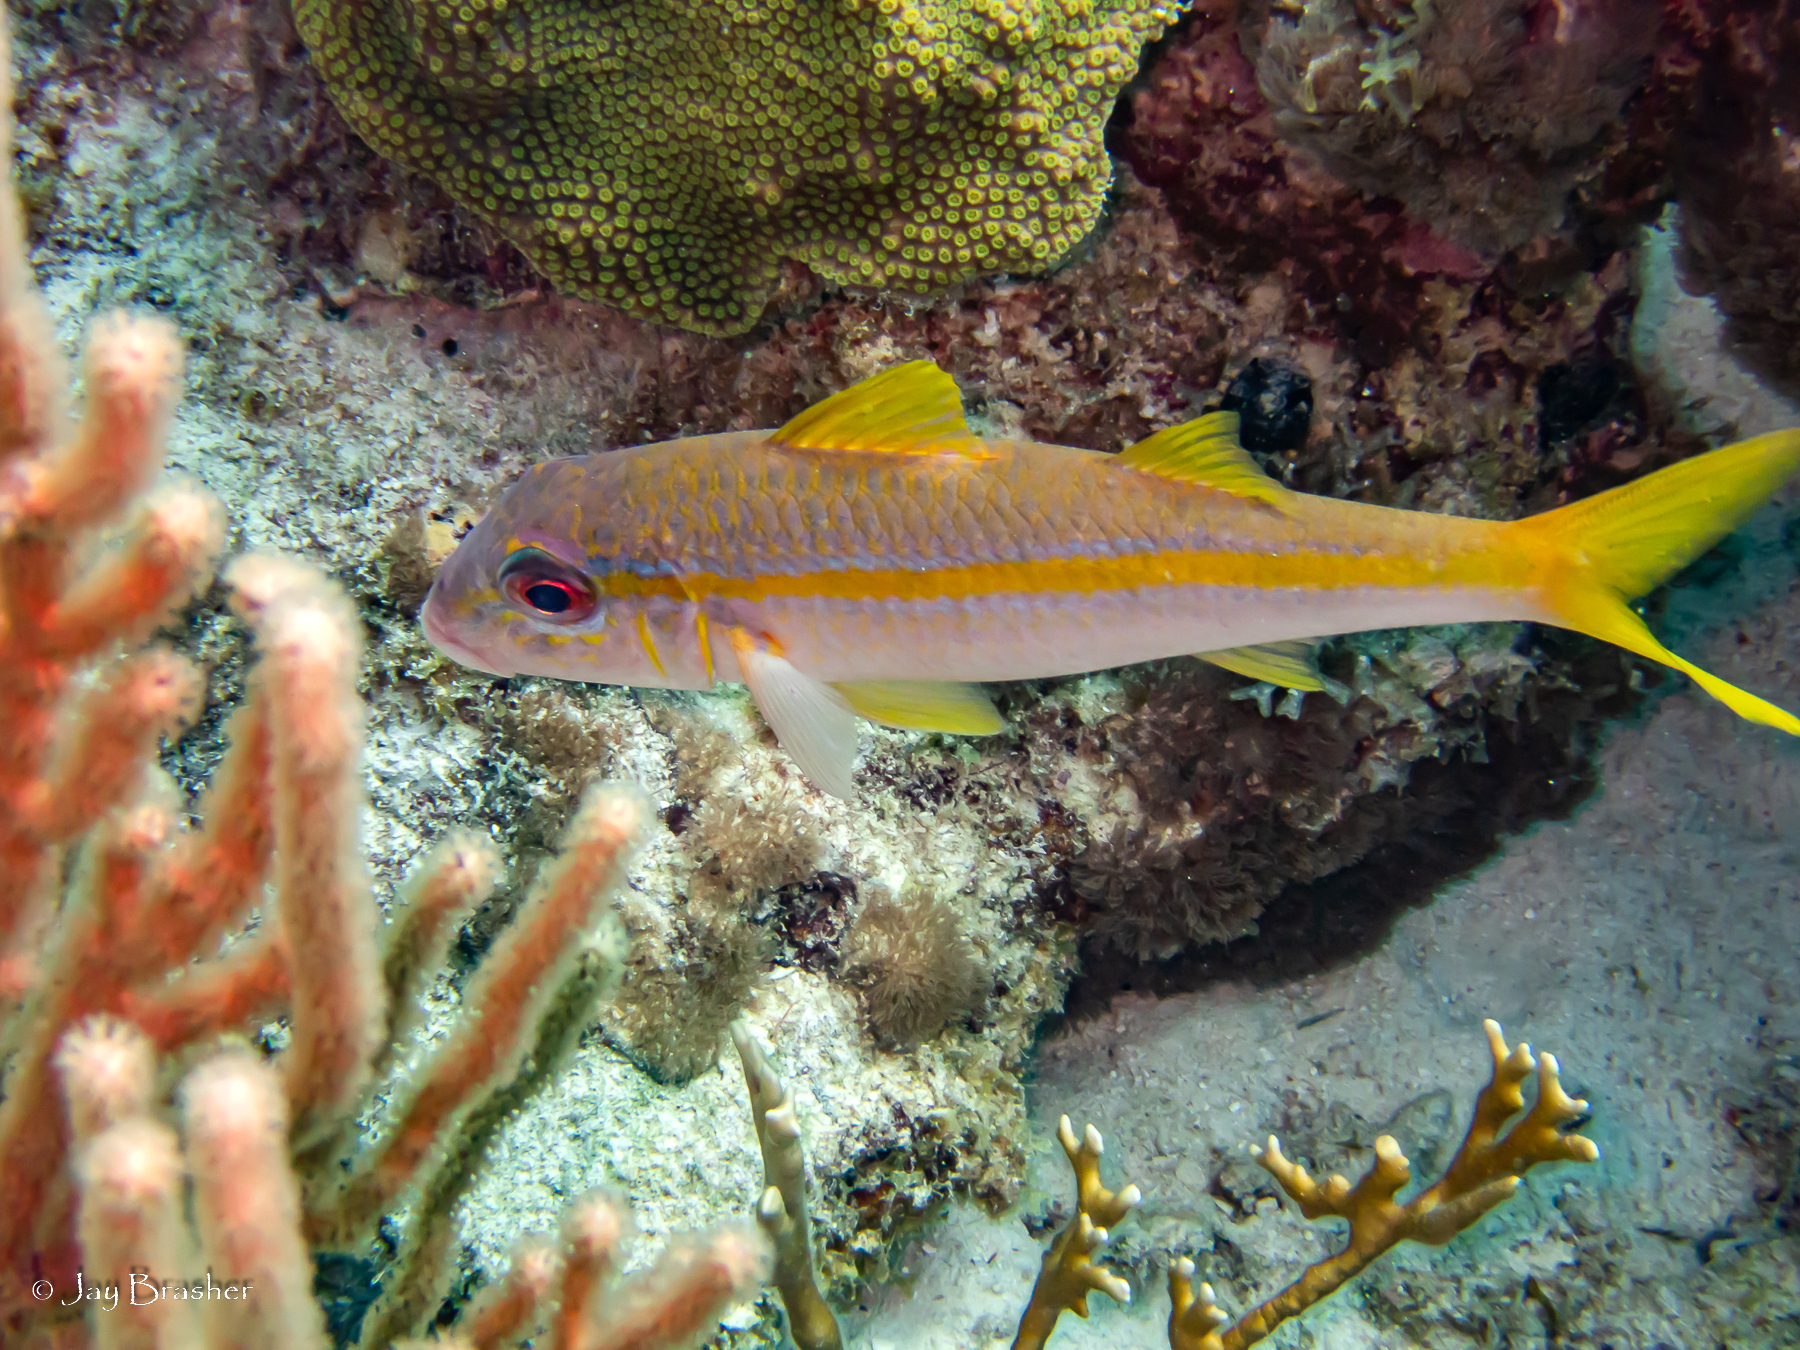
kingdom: Animalia
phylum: Chordata
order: Perciformes
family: Mullidae
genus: Mulloidichthys
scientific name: Mulloidichthys martinicus
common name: Yellow goatfish
